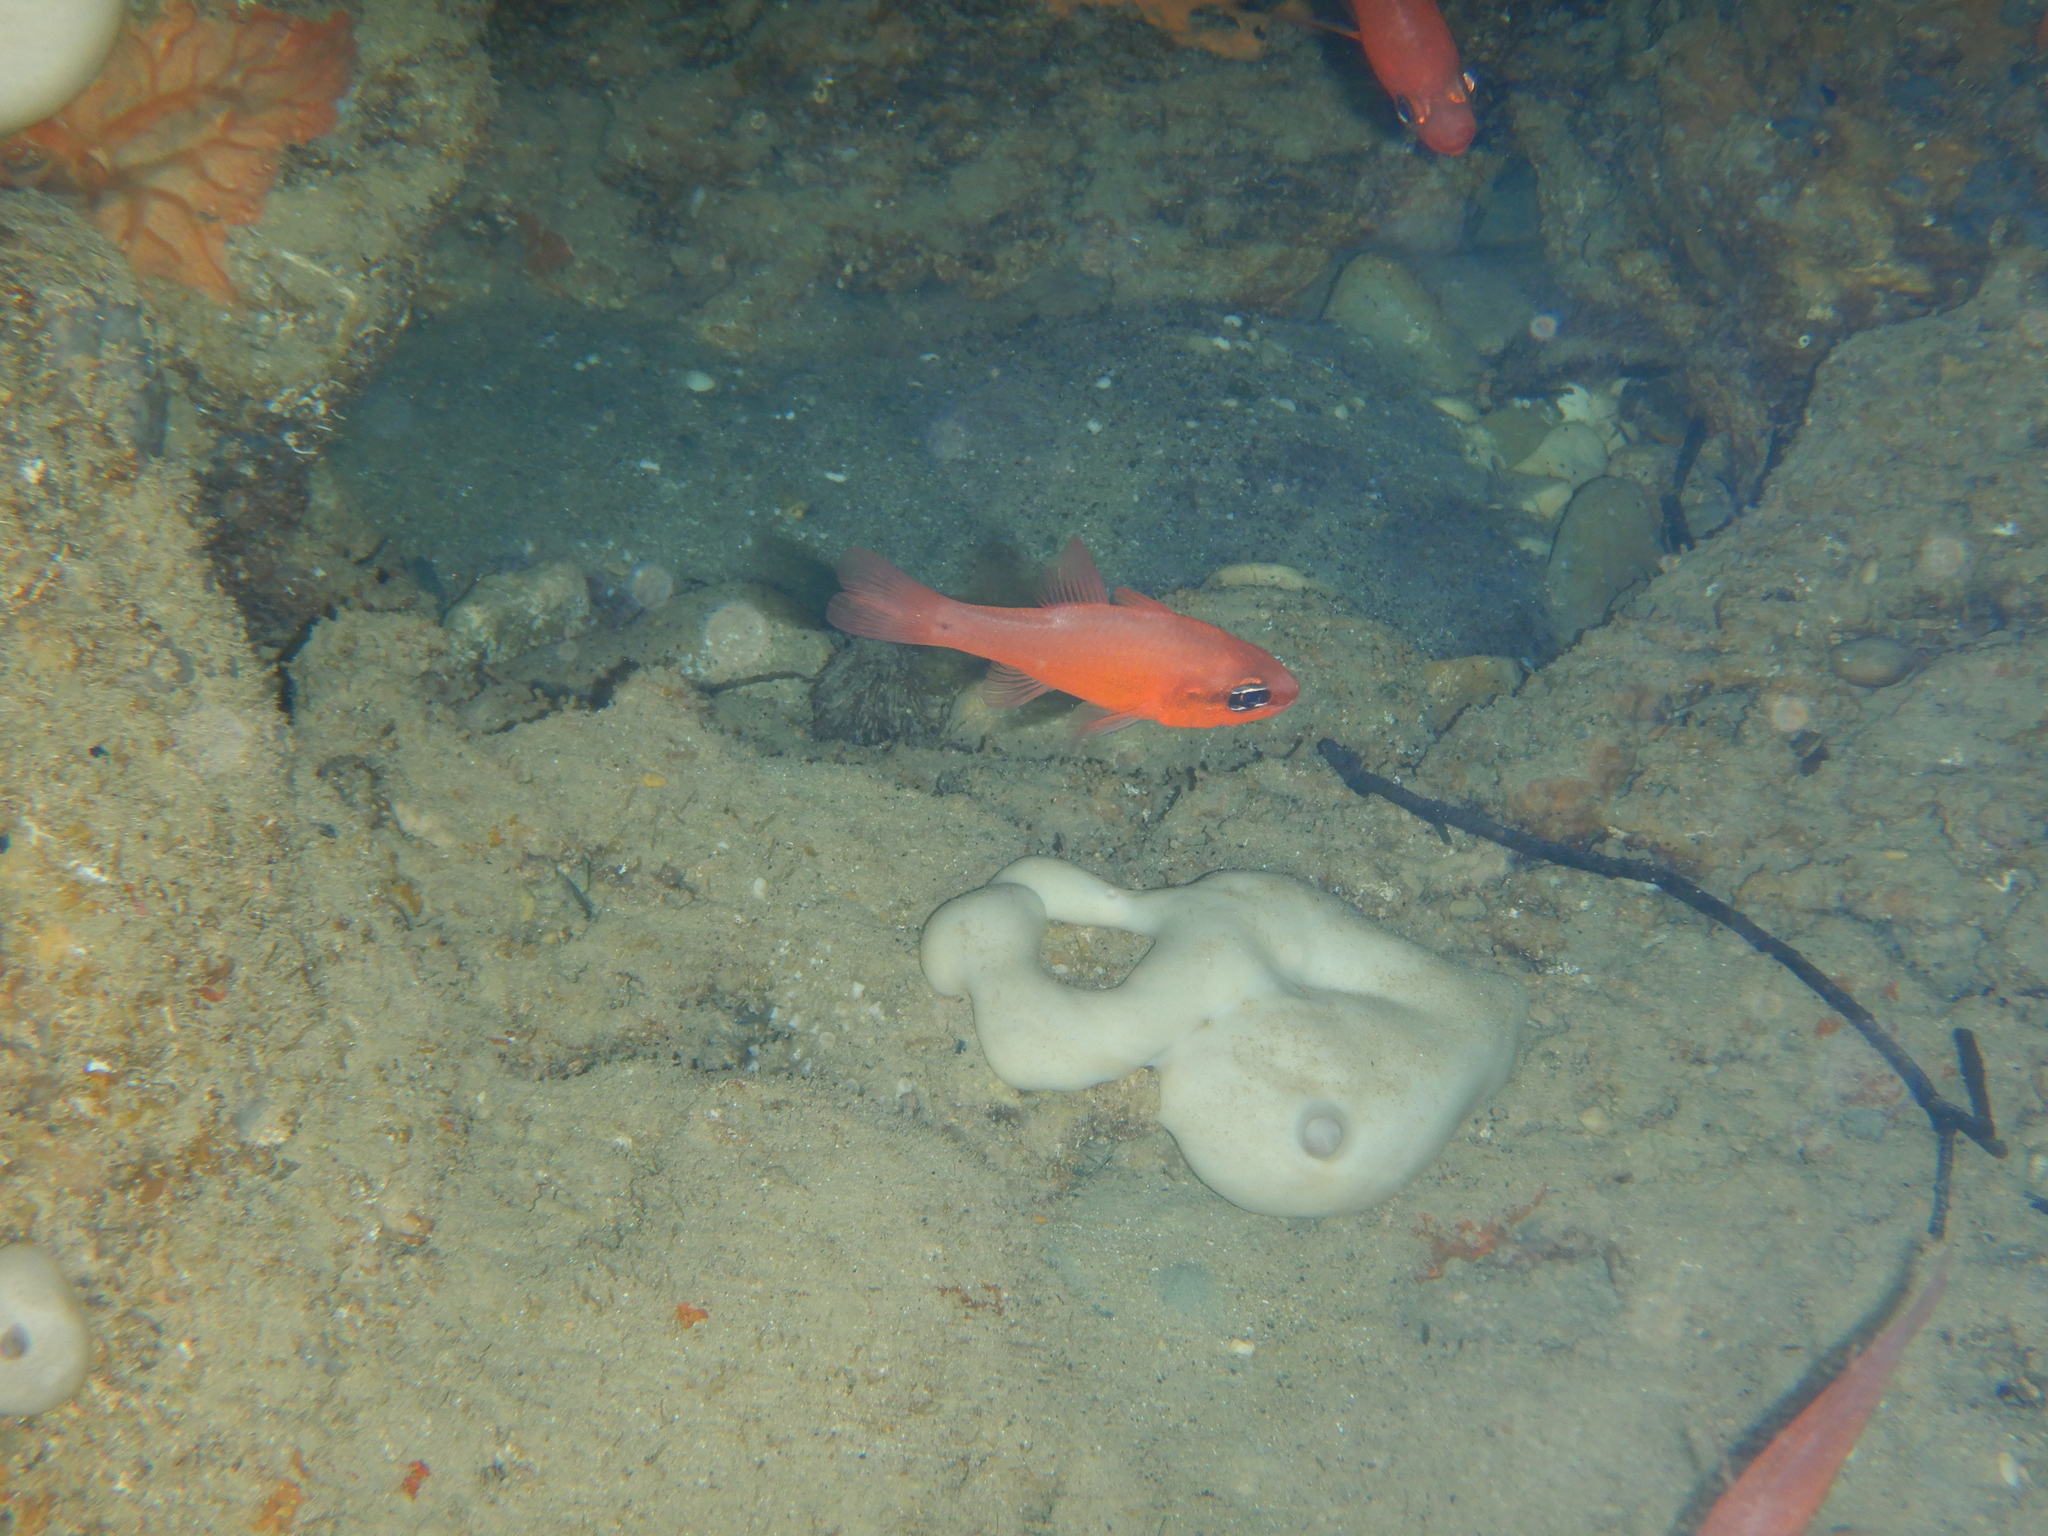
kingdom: Animalia
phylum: Chordata
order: Perciformes
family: Apogonidae
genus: Apogon
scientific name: Apogon imberbis
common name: Cardinal fish
